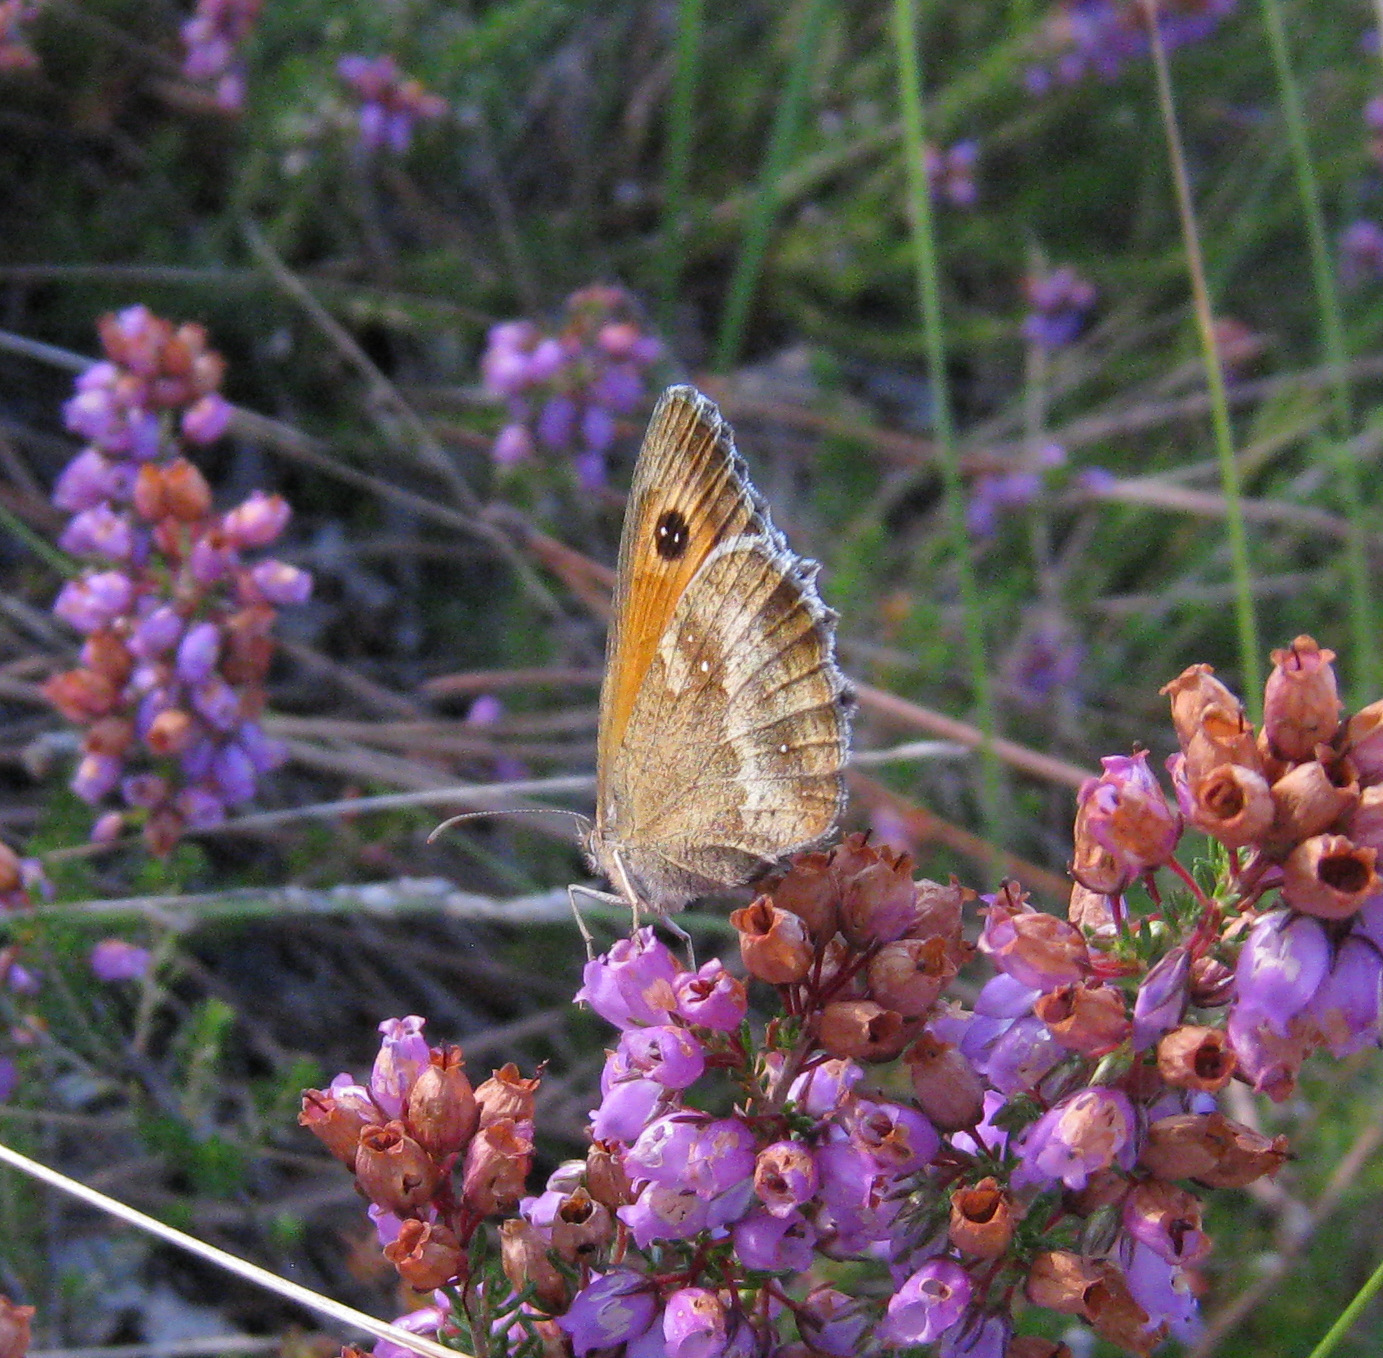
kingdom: Animalia
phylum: Arthropoda
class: Insecta
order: Lepidoptera
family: Nymphalidae
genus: Pyronia
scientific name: Pyronia tithonus
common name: Gatekeeper
